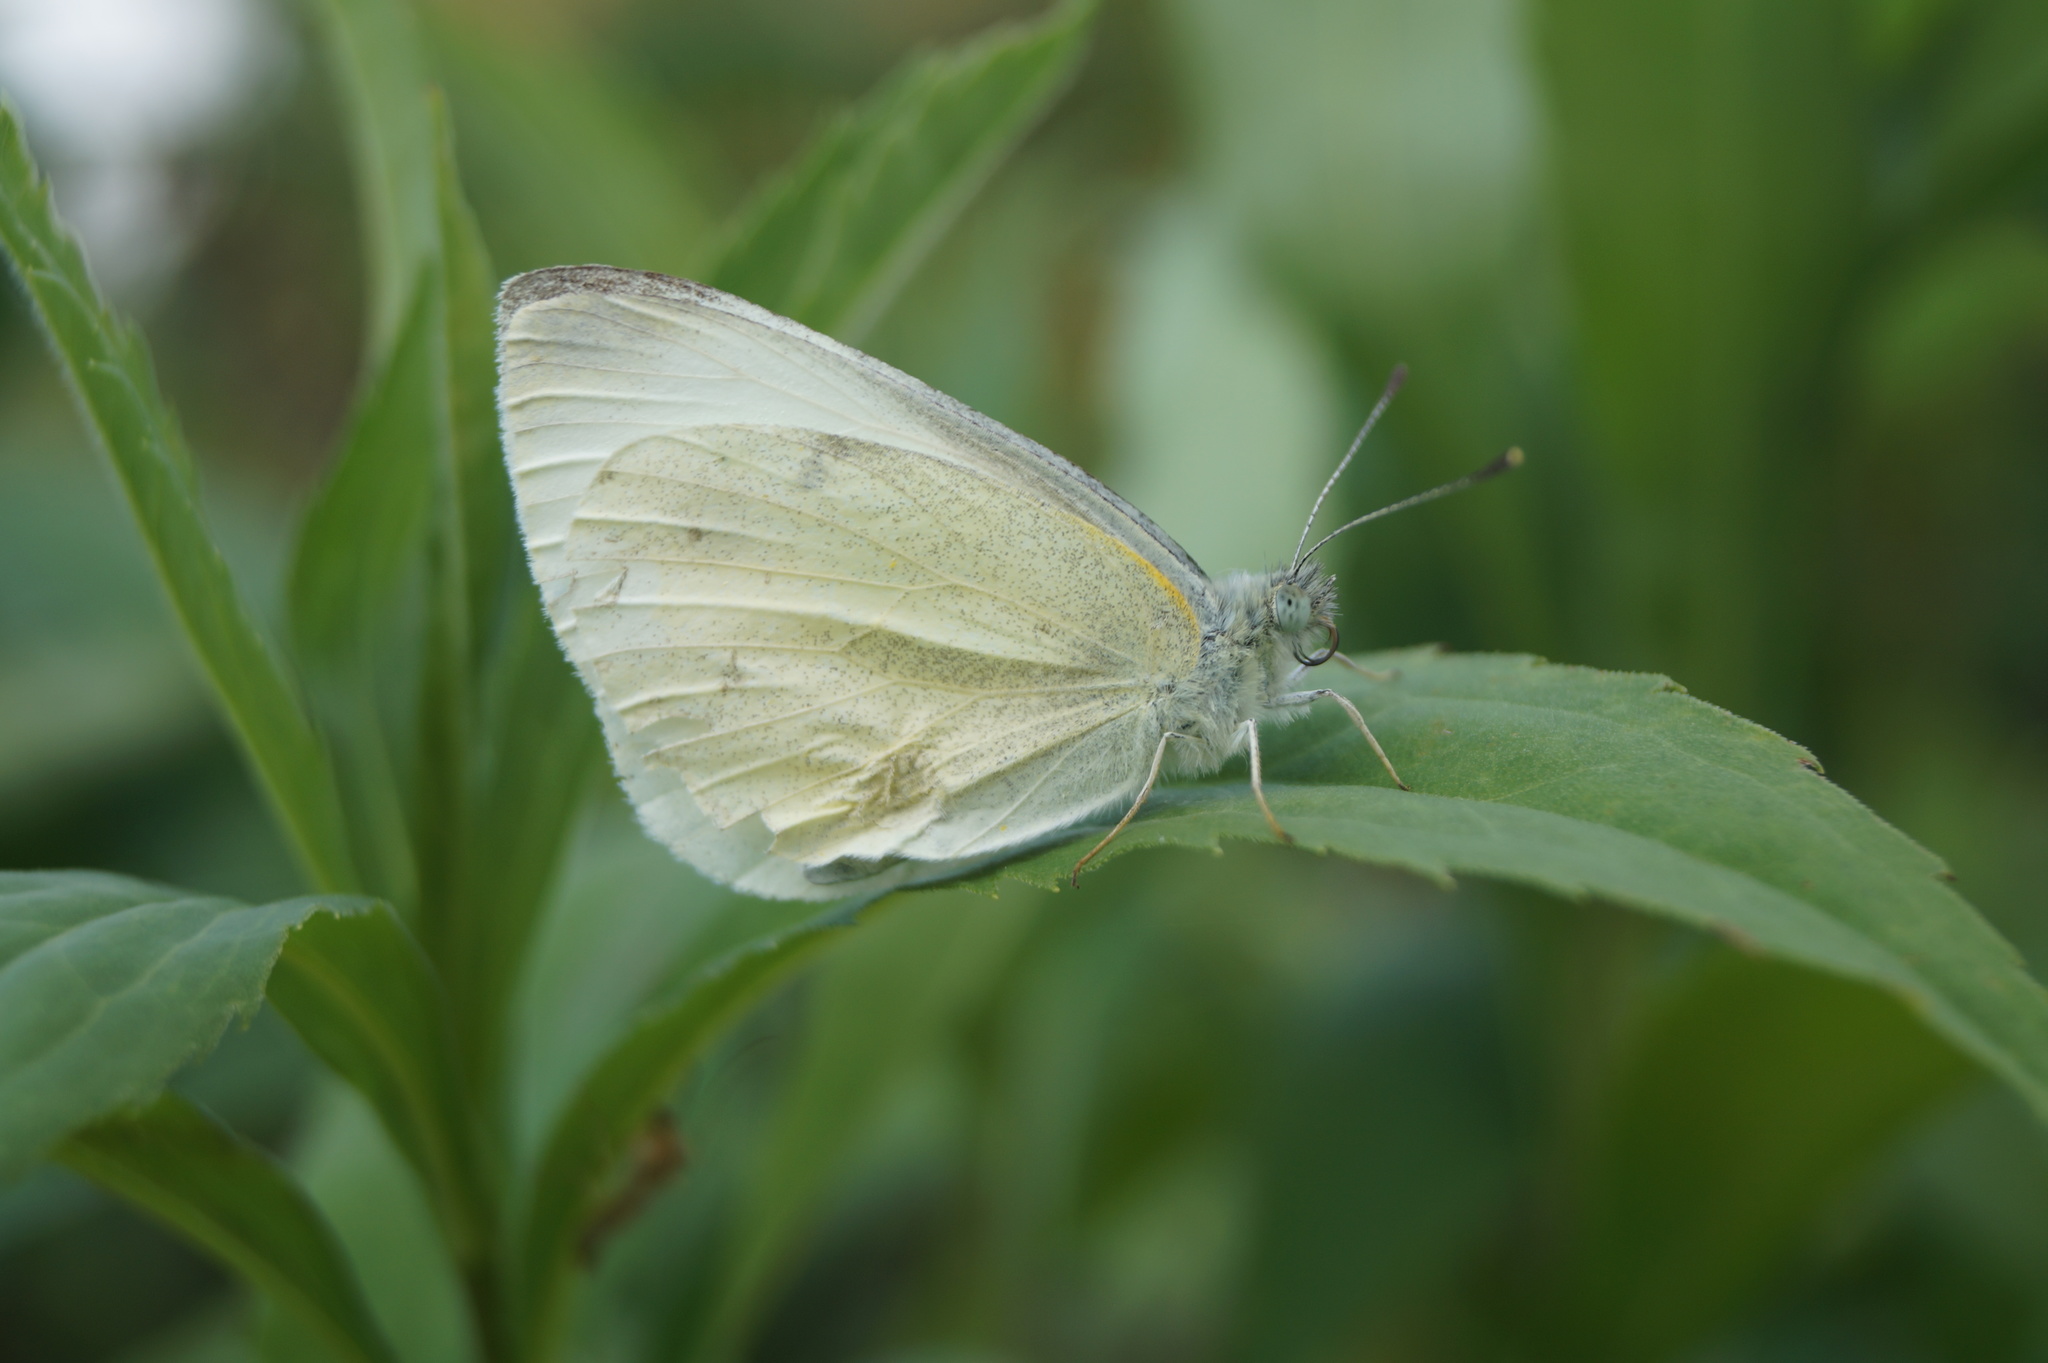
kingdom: Animalia
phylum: Arthropoda
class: Insecta
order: Lepidoptera
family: Pieridae
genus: Pieris
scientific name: Pieris rapae
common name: Small white
